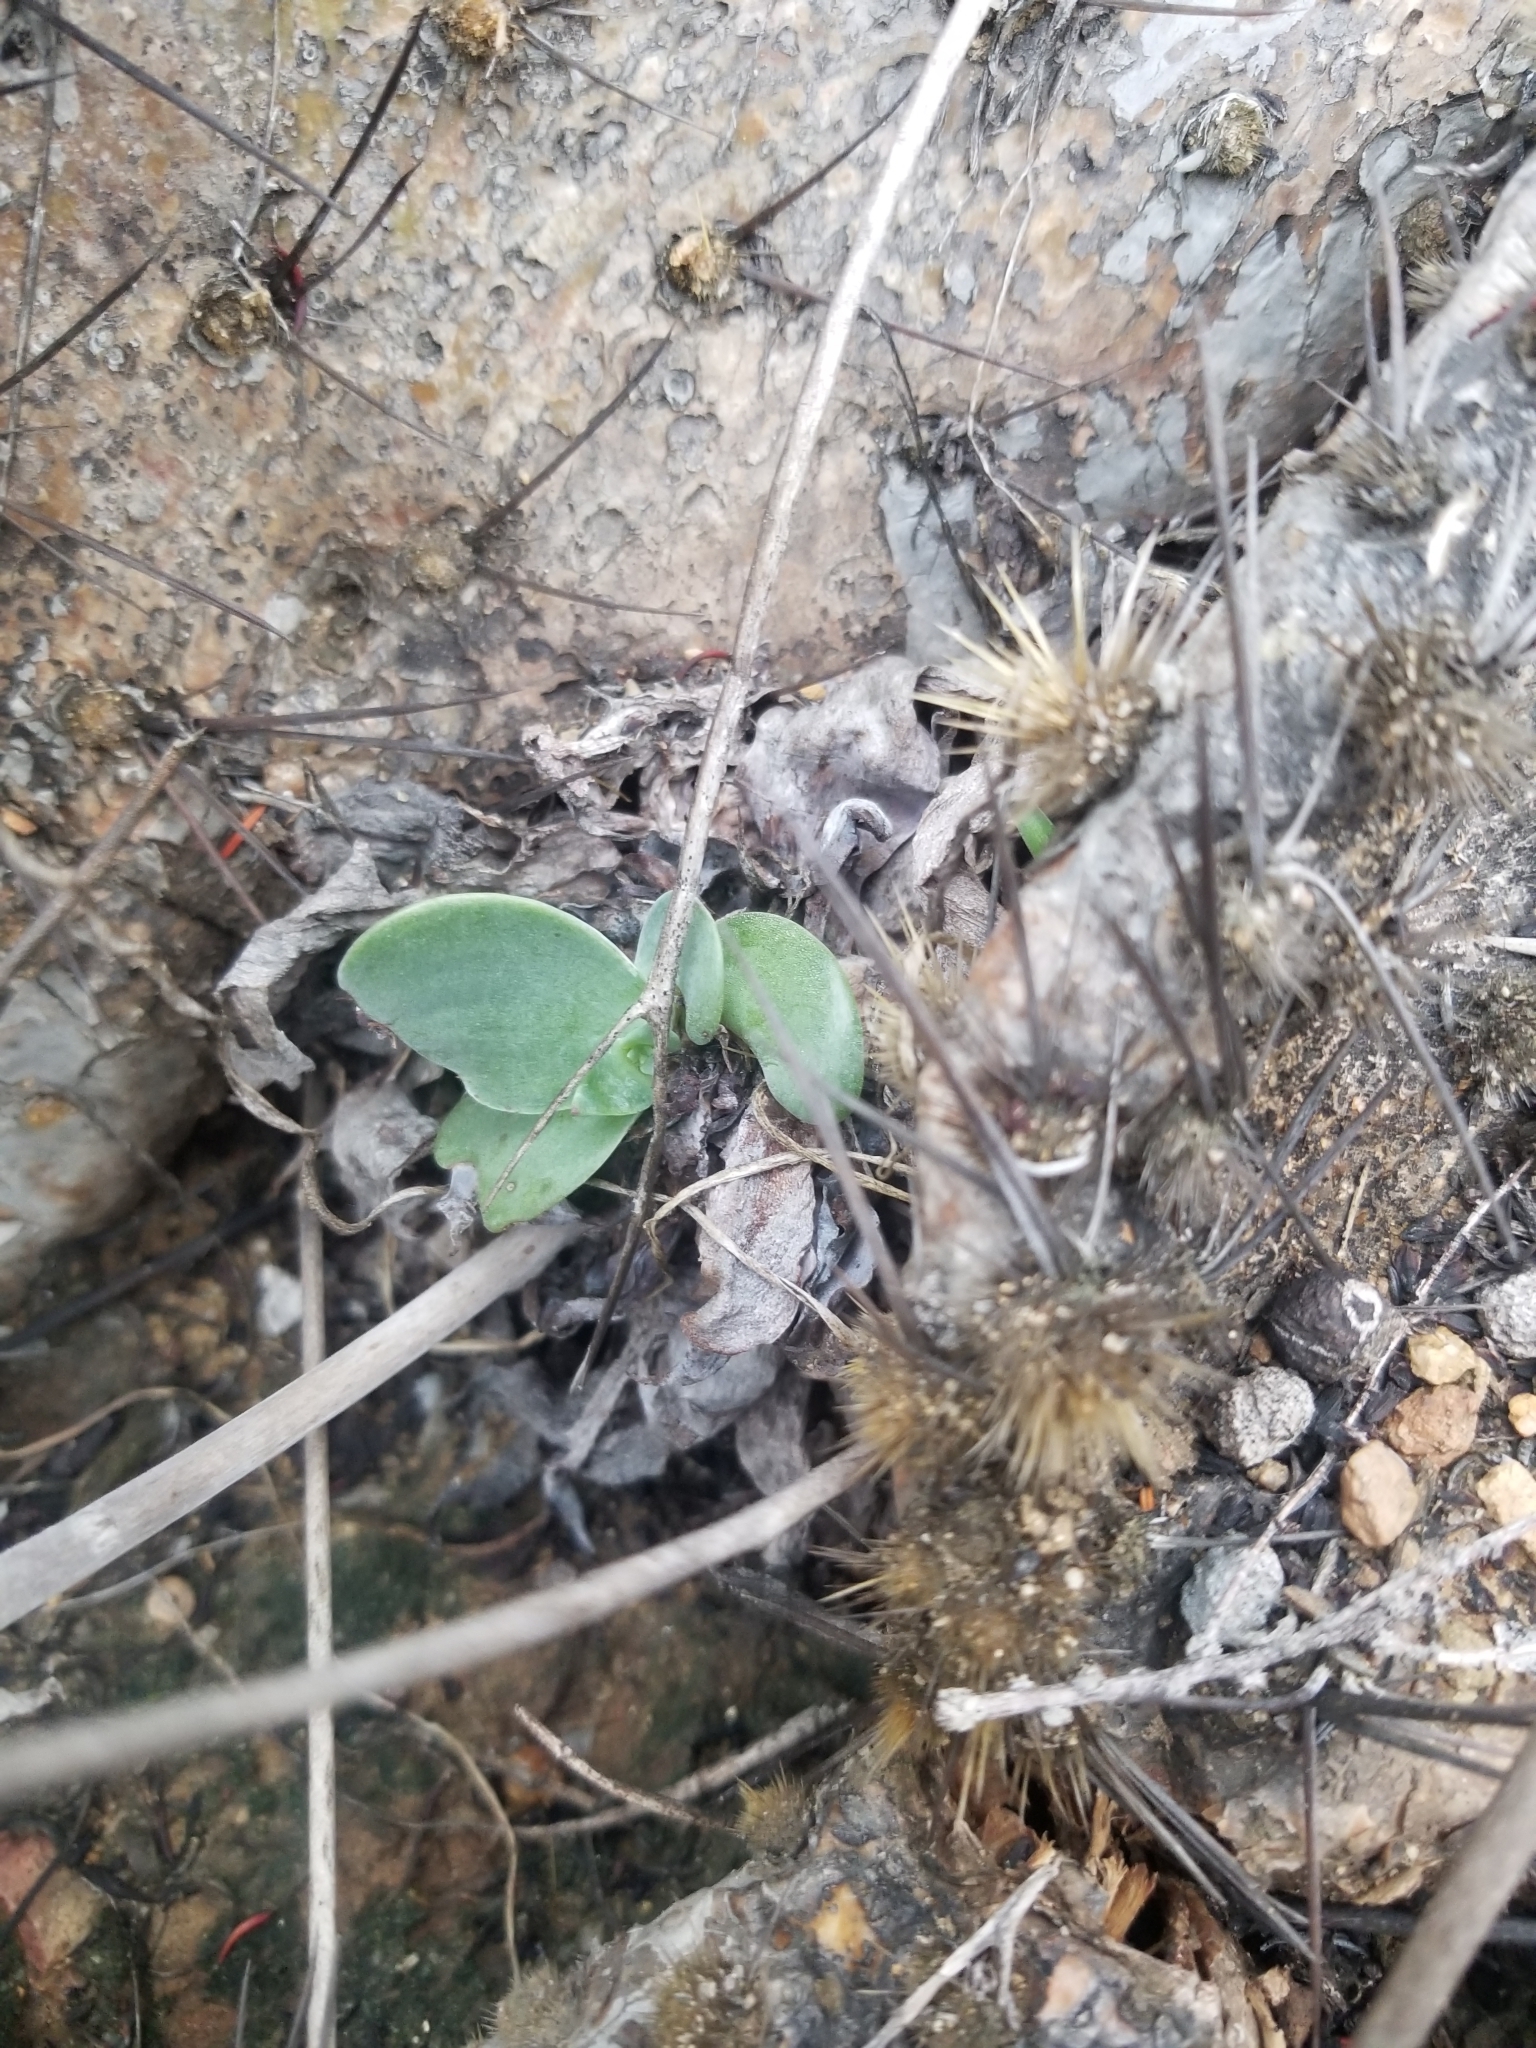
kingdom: Plantae
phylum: Tracheophyta
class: Magnoliopsida
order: Saxifragales
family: Crassulaceae
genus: Dudleya
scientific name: Dudleya pulverulenta
